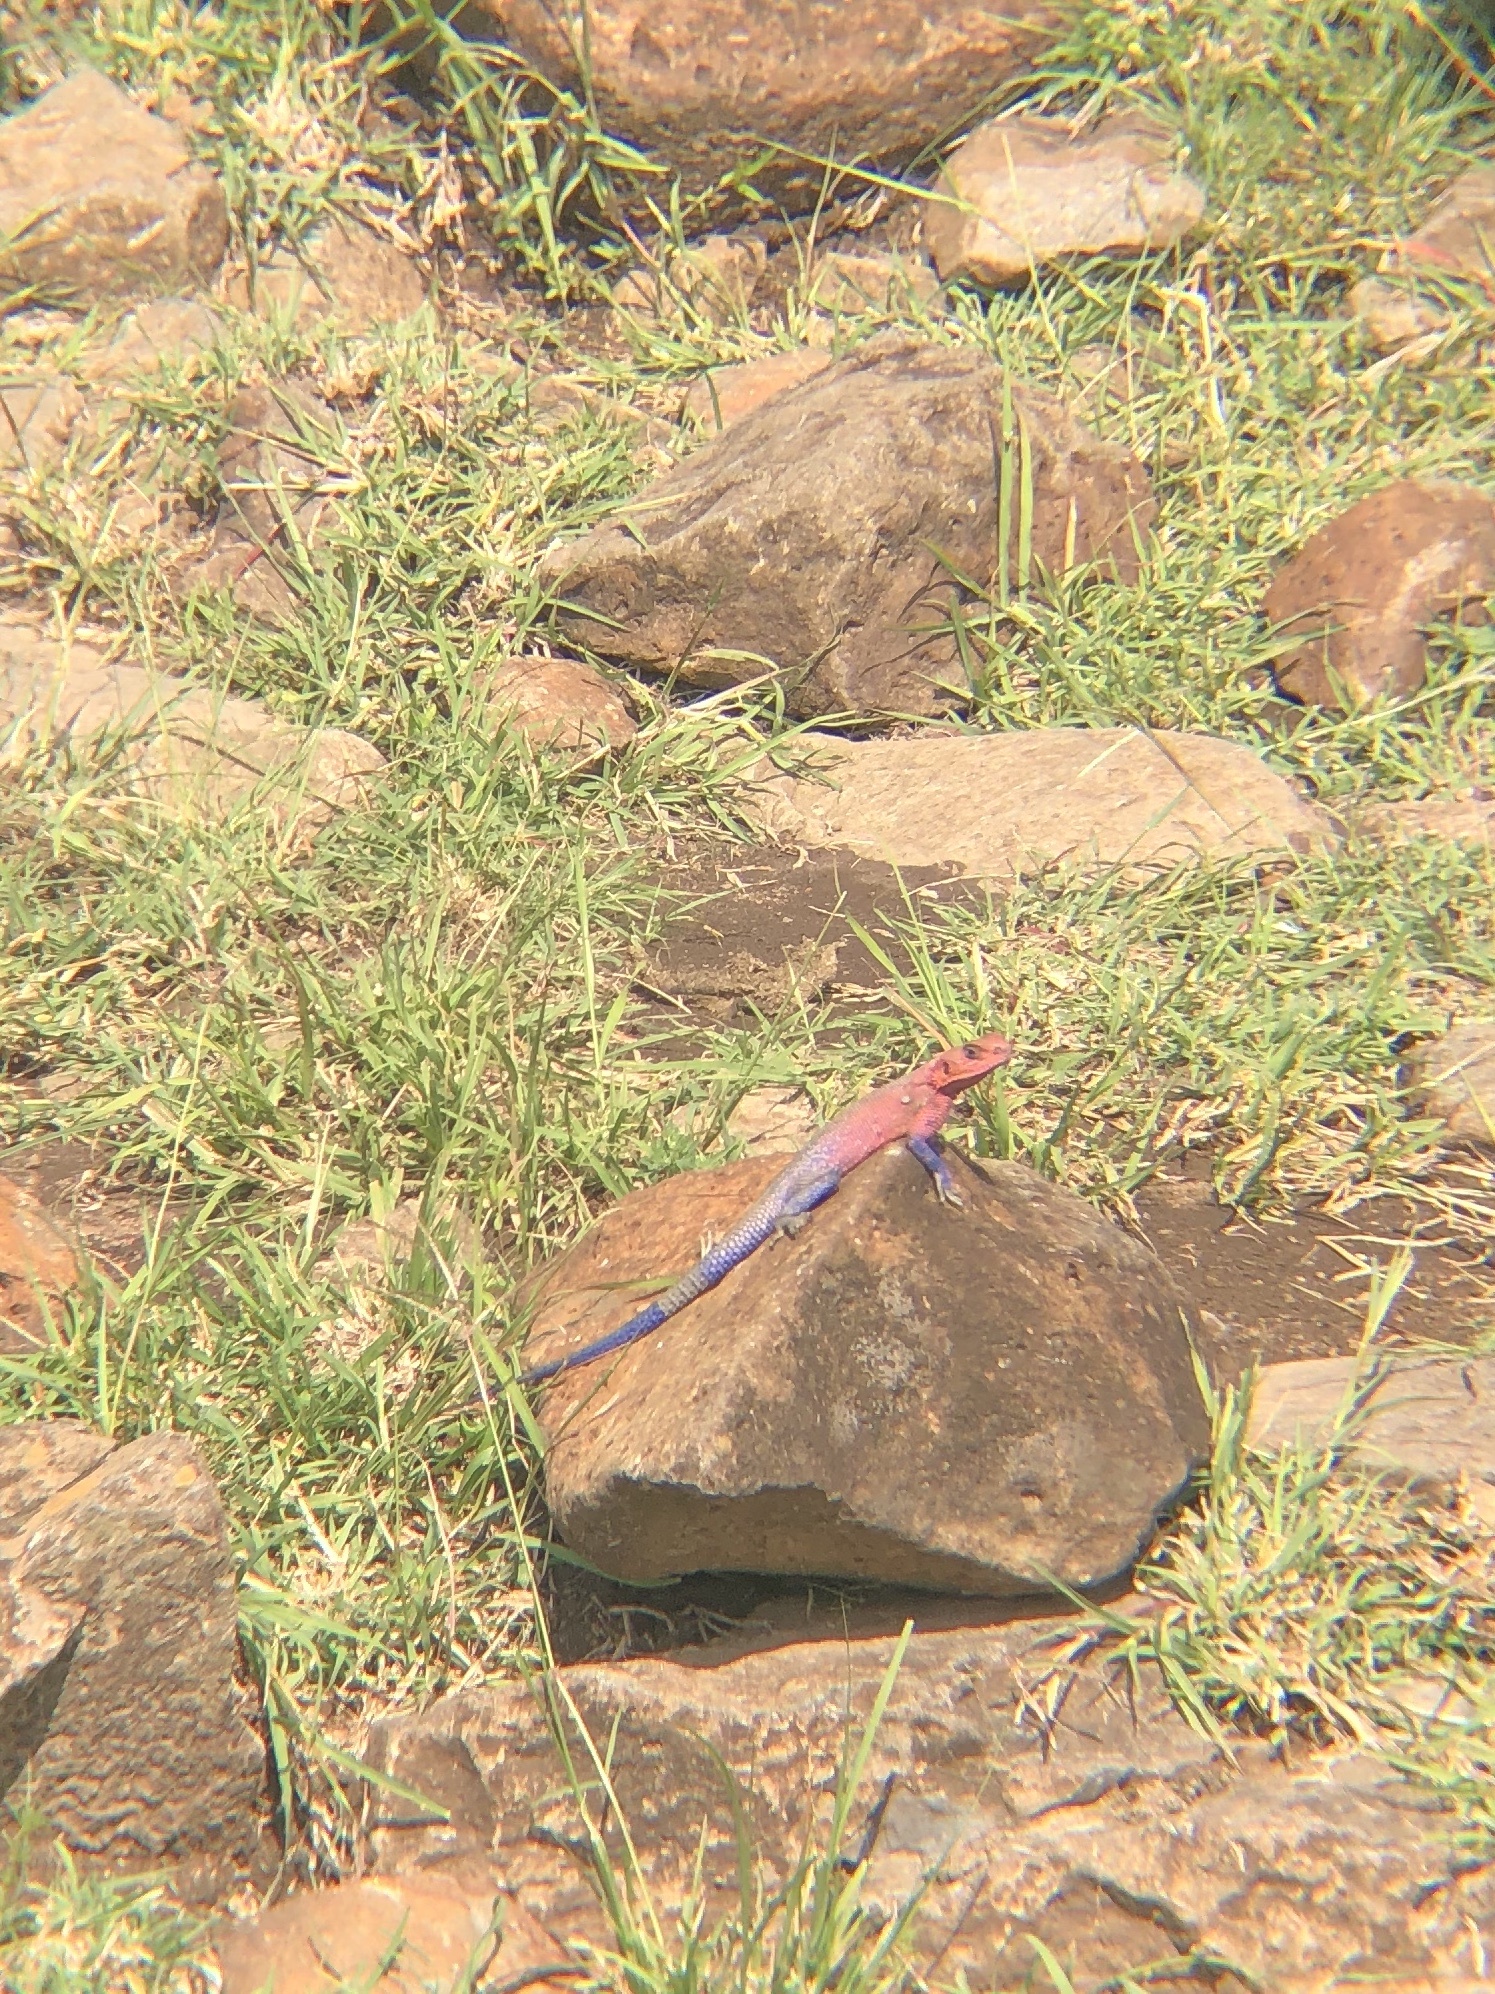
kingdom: Animalia
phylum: Chordata
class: Squamata
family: Agamidae
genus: Agama
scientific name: Agama mwanzae
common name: Mwanza flat-headed agama
